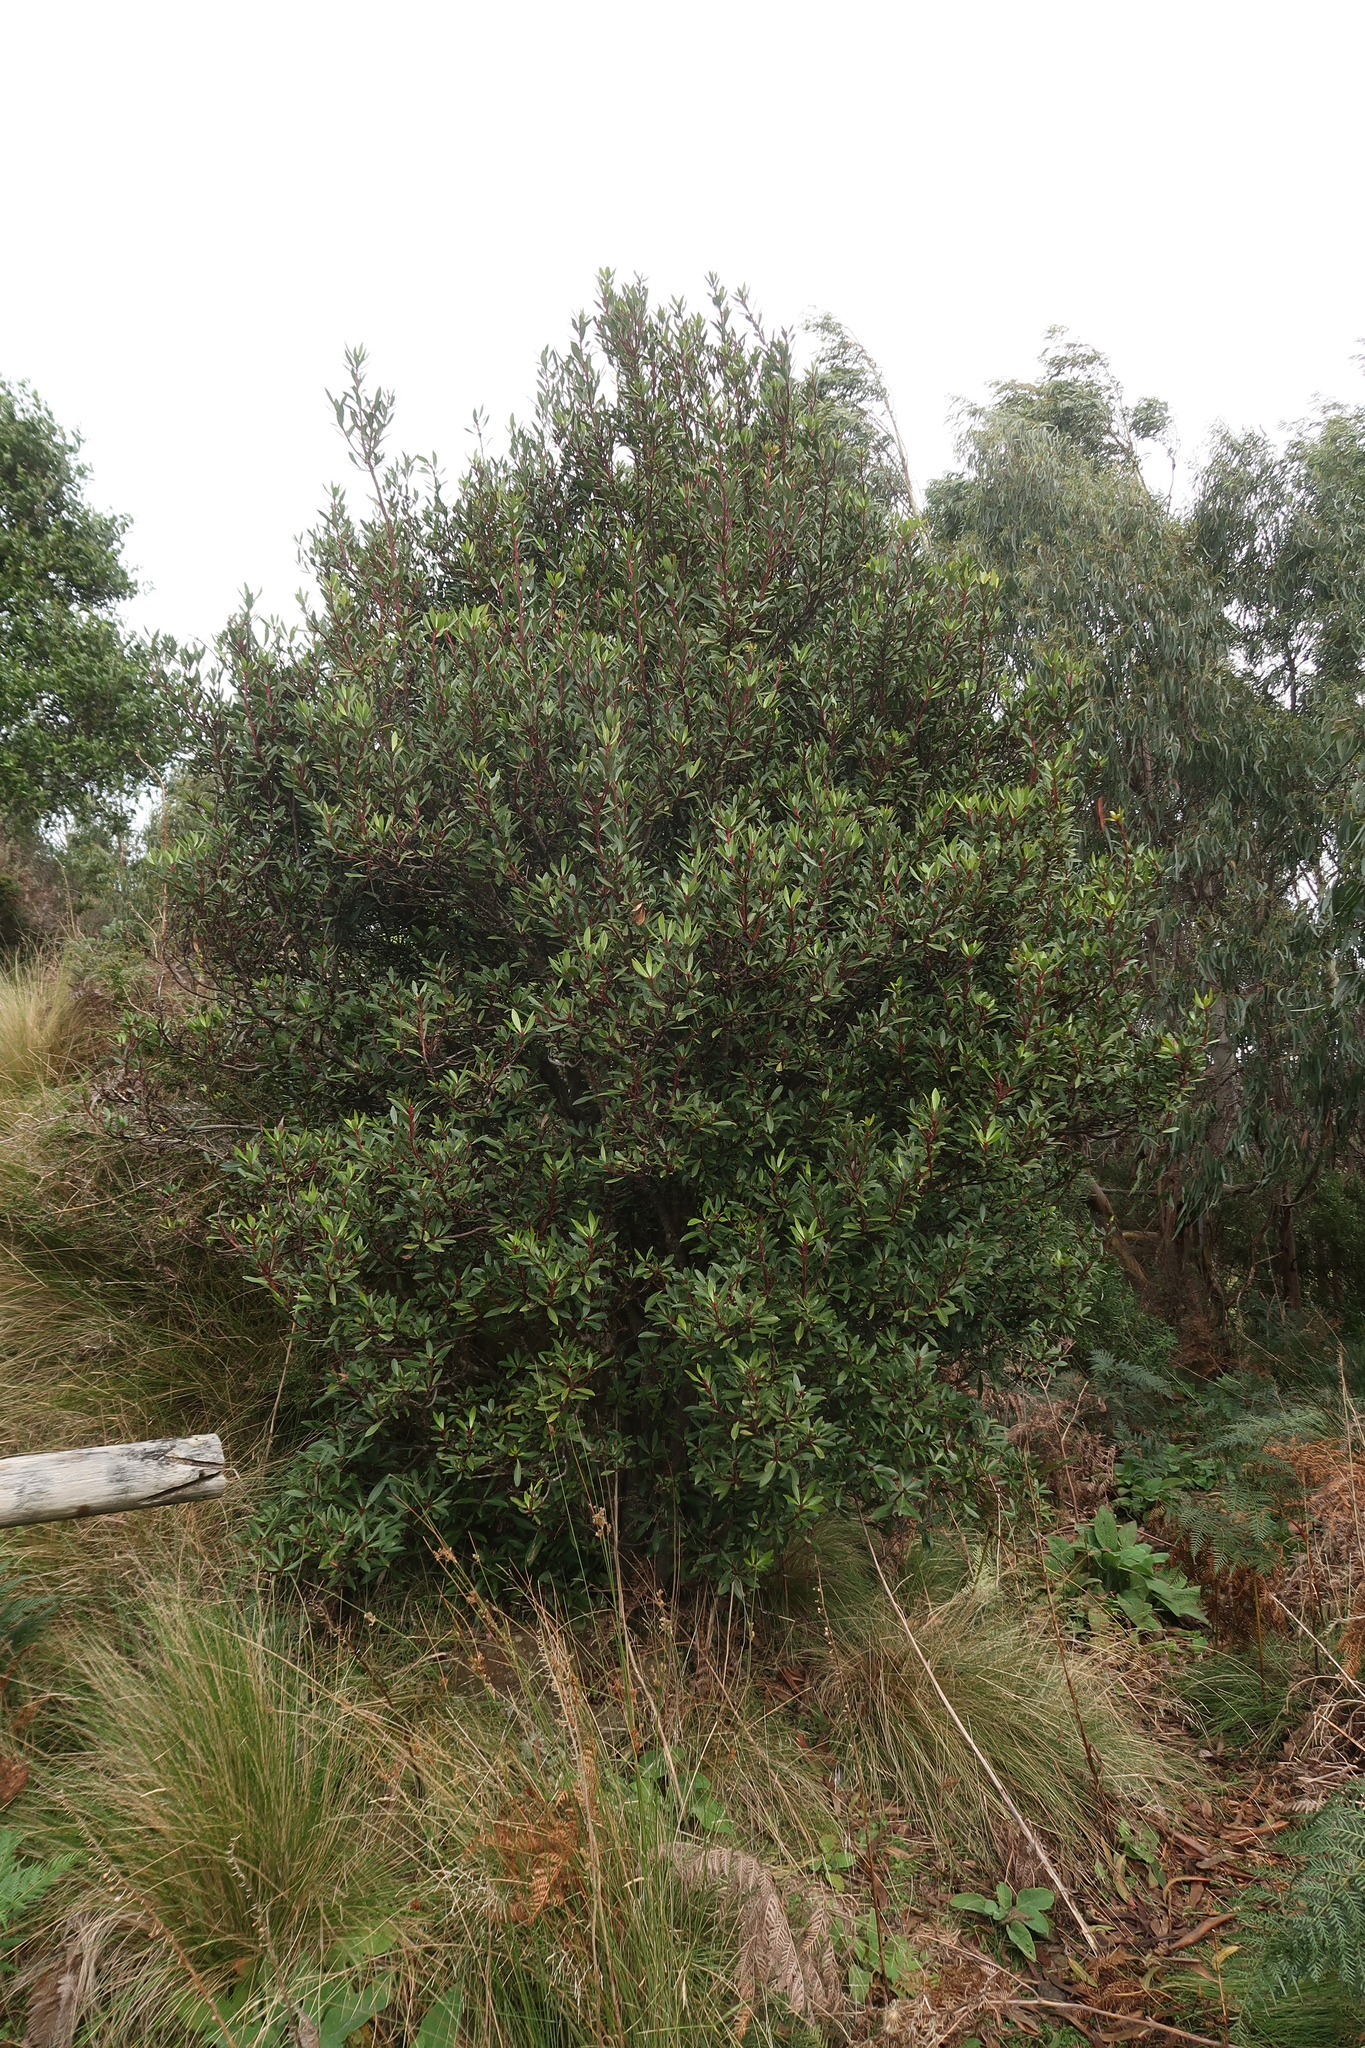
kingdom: Plantae
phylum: Tracheophyta
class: Magnoliopsida
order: Canellales
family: Winteraceae
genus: Drimys
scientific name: Drimys aromatica
